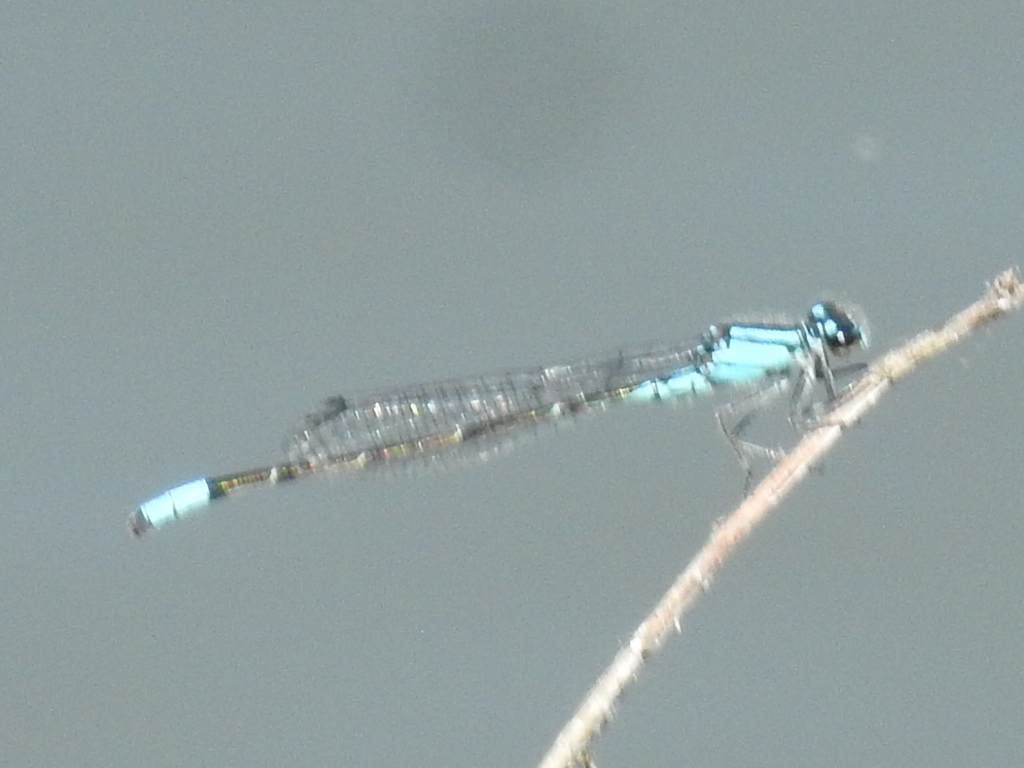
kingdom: Animalia
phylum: Arthropoda
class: Insecta
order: Odonata
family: Coenagrionidae
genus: Enallagma
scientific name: Enallagma geminatum
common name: Skimming bluet
